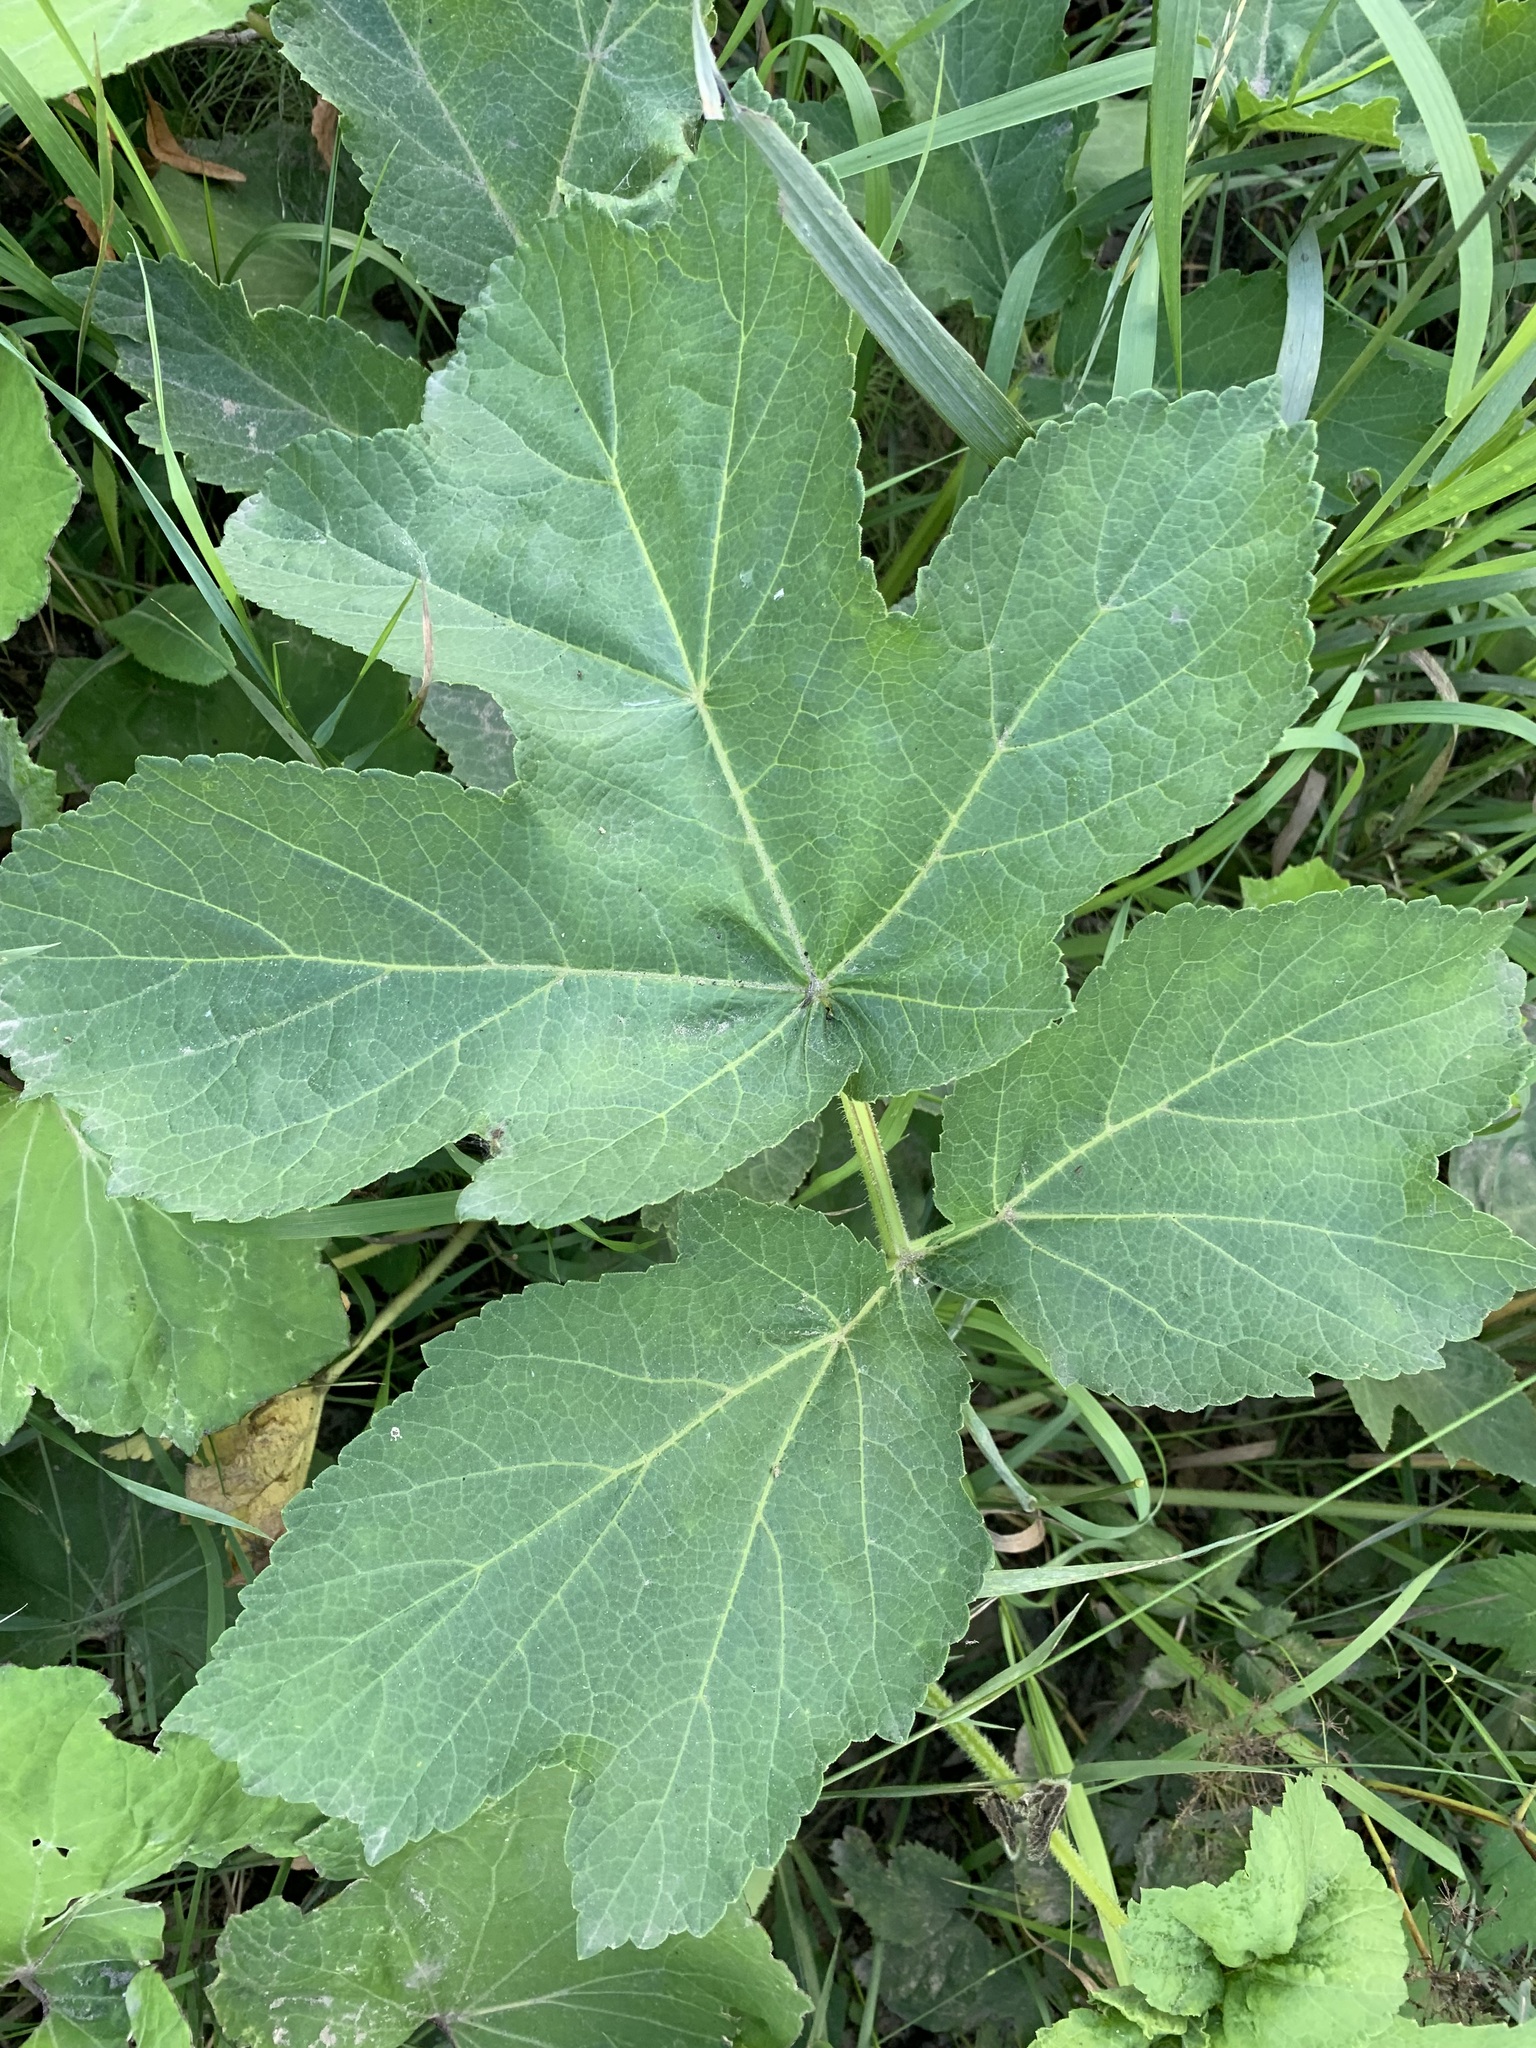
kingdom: Plantae
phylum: Tracheophyta
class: Magnoliopsida
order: Apiales
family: Apiaceae
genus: Heracleum
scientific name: Heracleum sphondylium
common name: Hogweed
